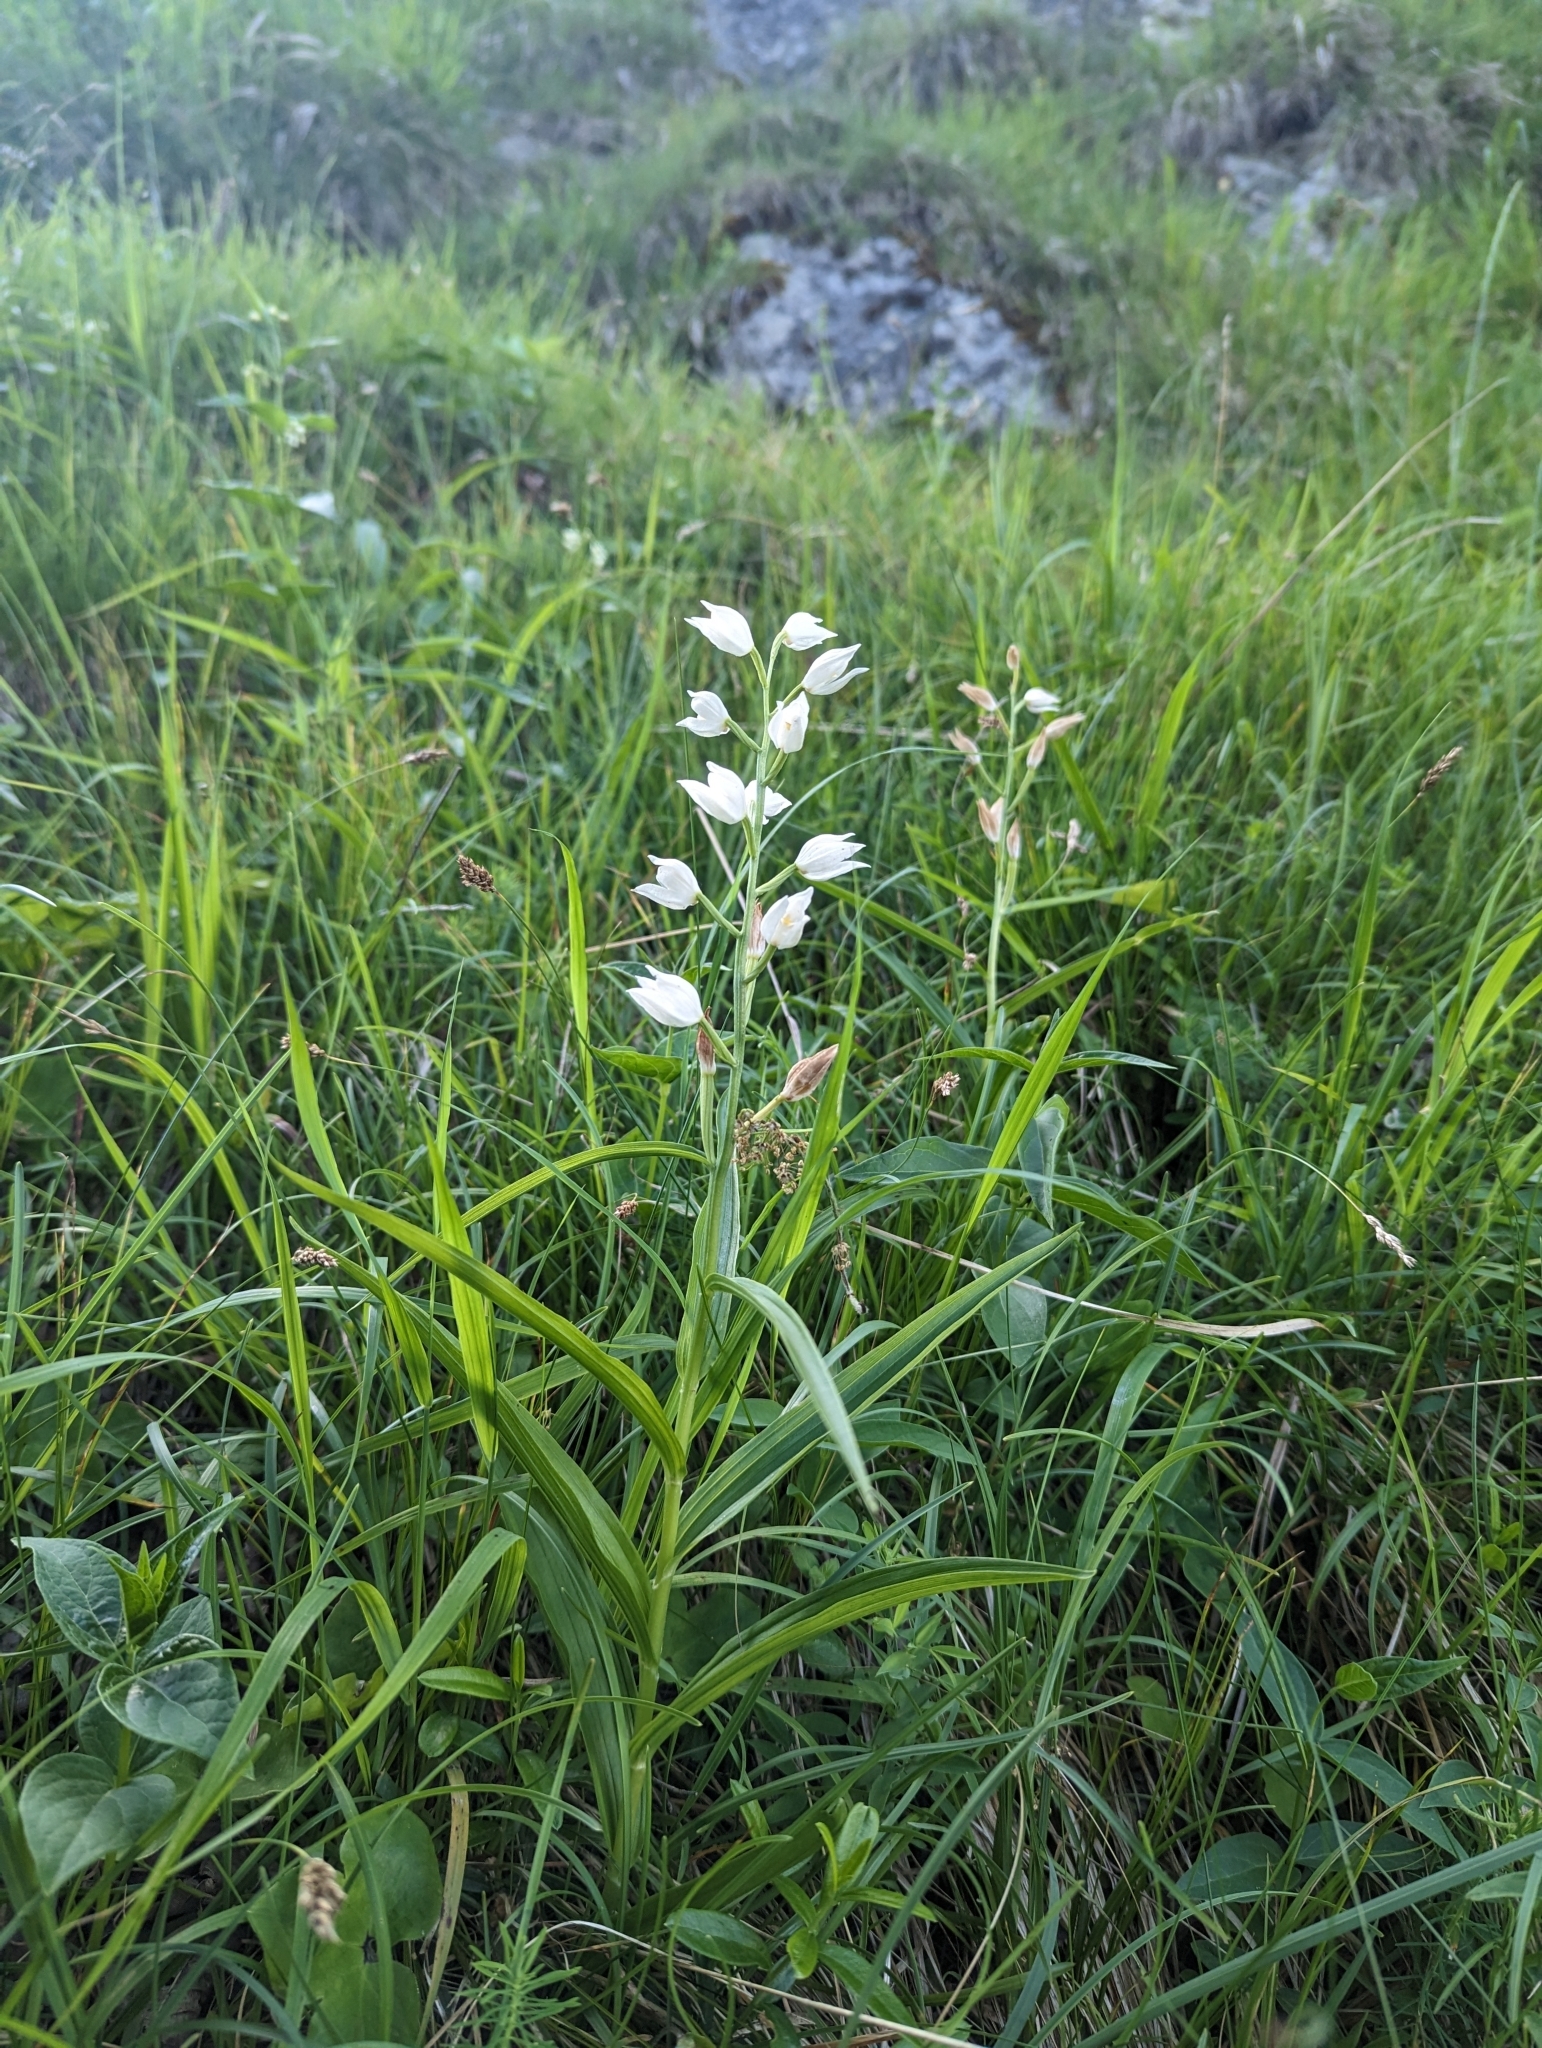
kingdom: Plantae
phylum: Tracheophyta
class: Liliopsida
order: Asparagales
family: Orchidaceae
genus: Cephalanthera
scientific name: Cephalanthera longifolia
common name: Narrow-leaved helleborine
